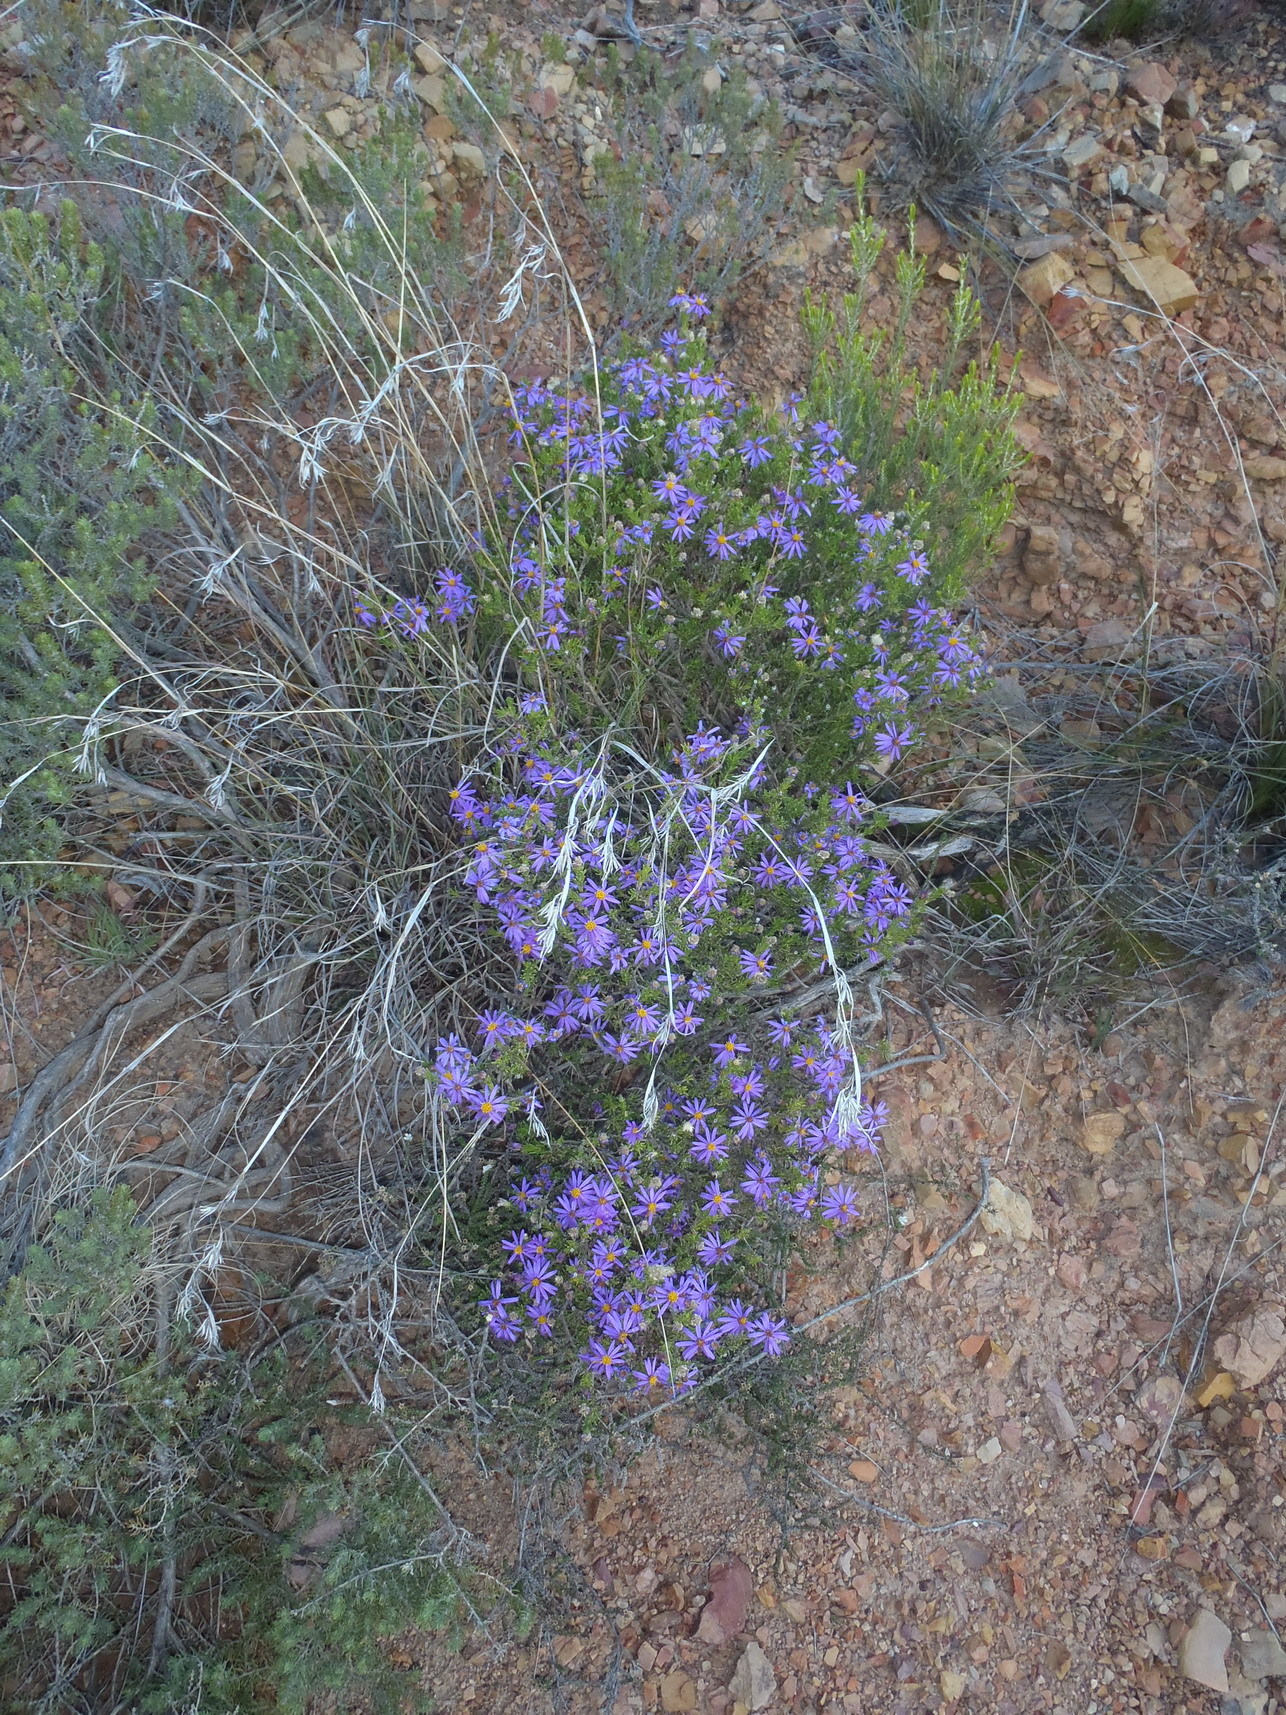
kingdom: Plantae
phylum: Tracheophyta
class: Magnoliopsida
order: Asterales
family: Asteraceae
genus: Felicia
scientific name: Felicia filifolia
